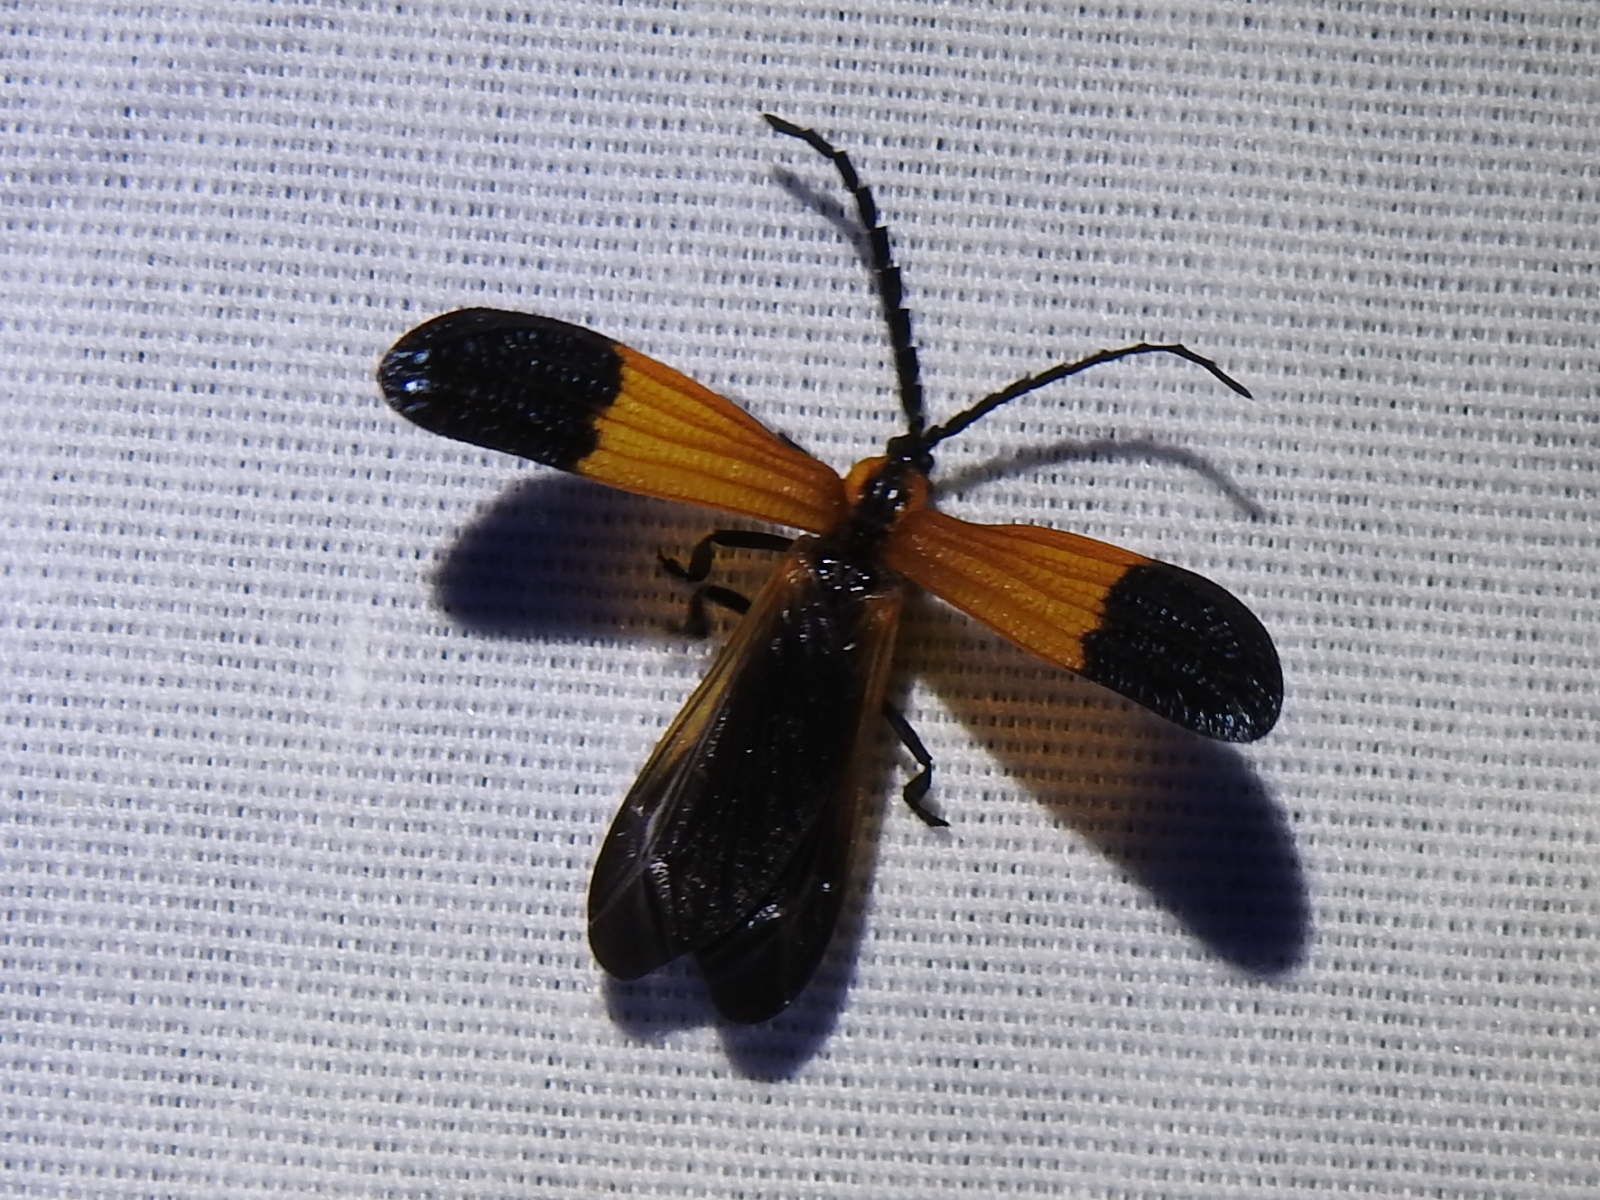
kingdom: Animalia
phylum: Arthropoda
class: Insecta
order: Coleoptera
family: Lycidae
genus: Calopteron
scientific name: Calopteron terminale
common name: End band net-winged beetle
